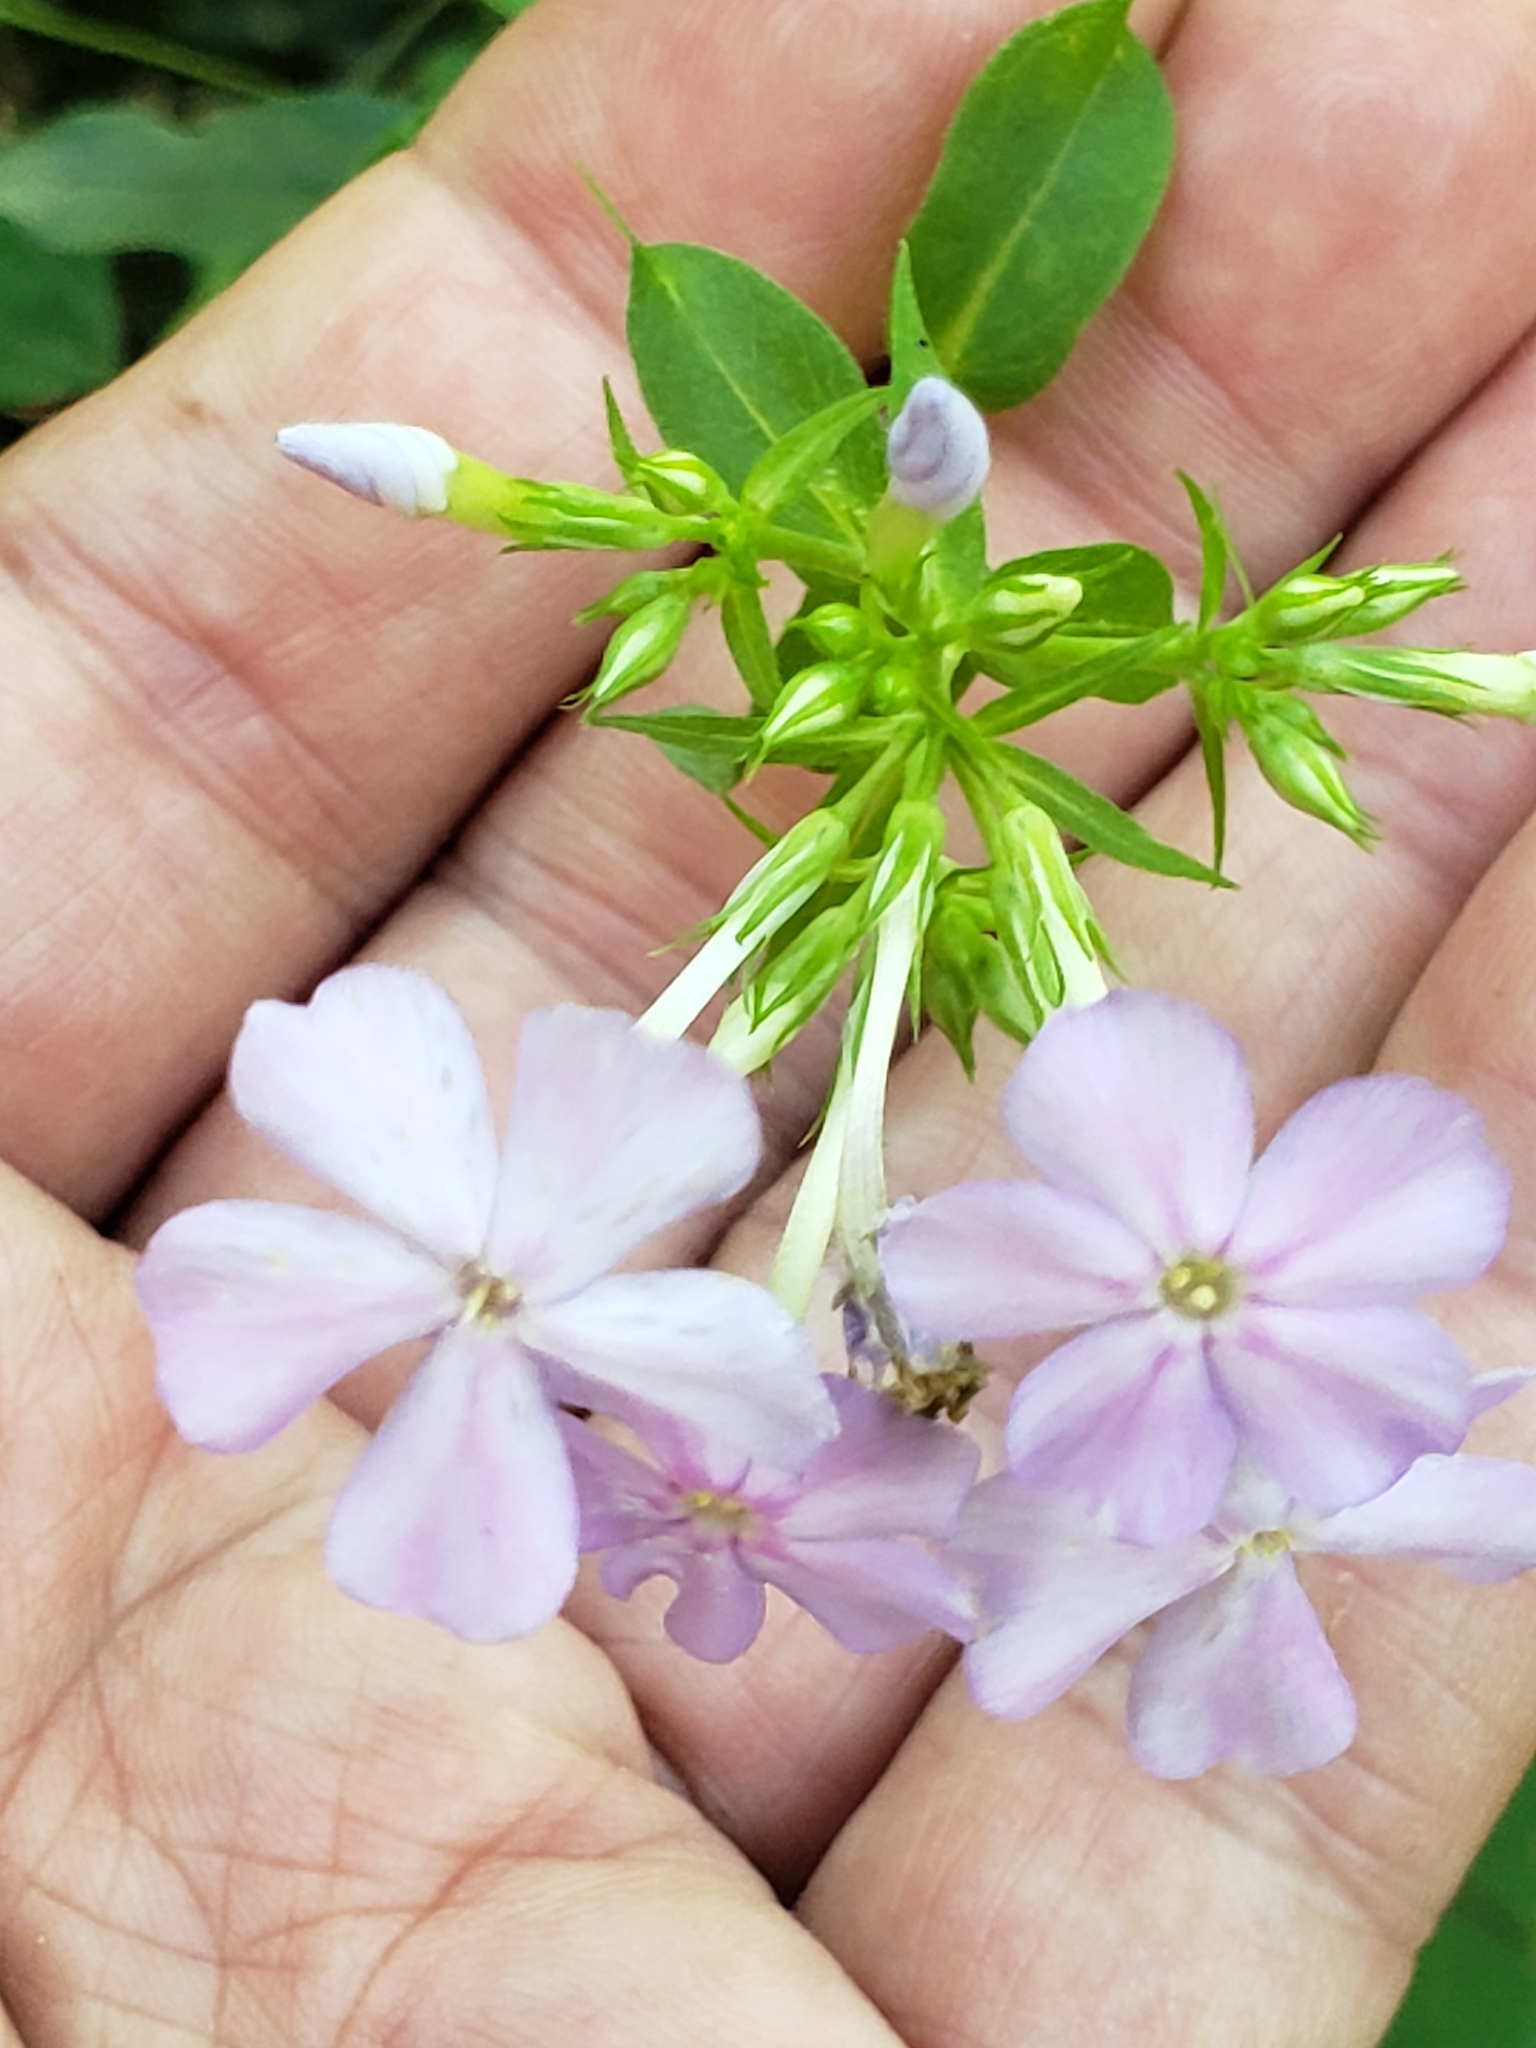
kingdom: Plantae
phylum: Tracheophyta
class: Magnoliopsida
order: Ericales
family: Polemoniaceae
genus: Phlox
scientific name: Phlox paniculata
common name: Fall phlox
